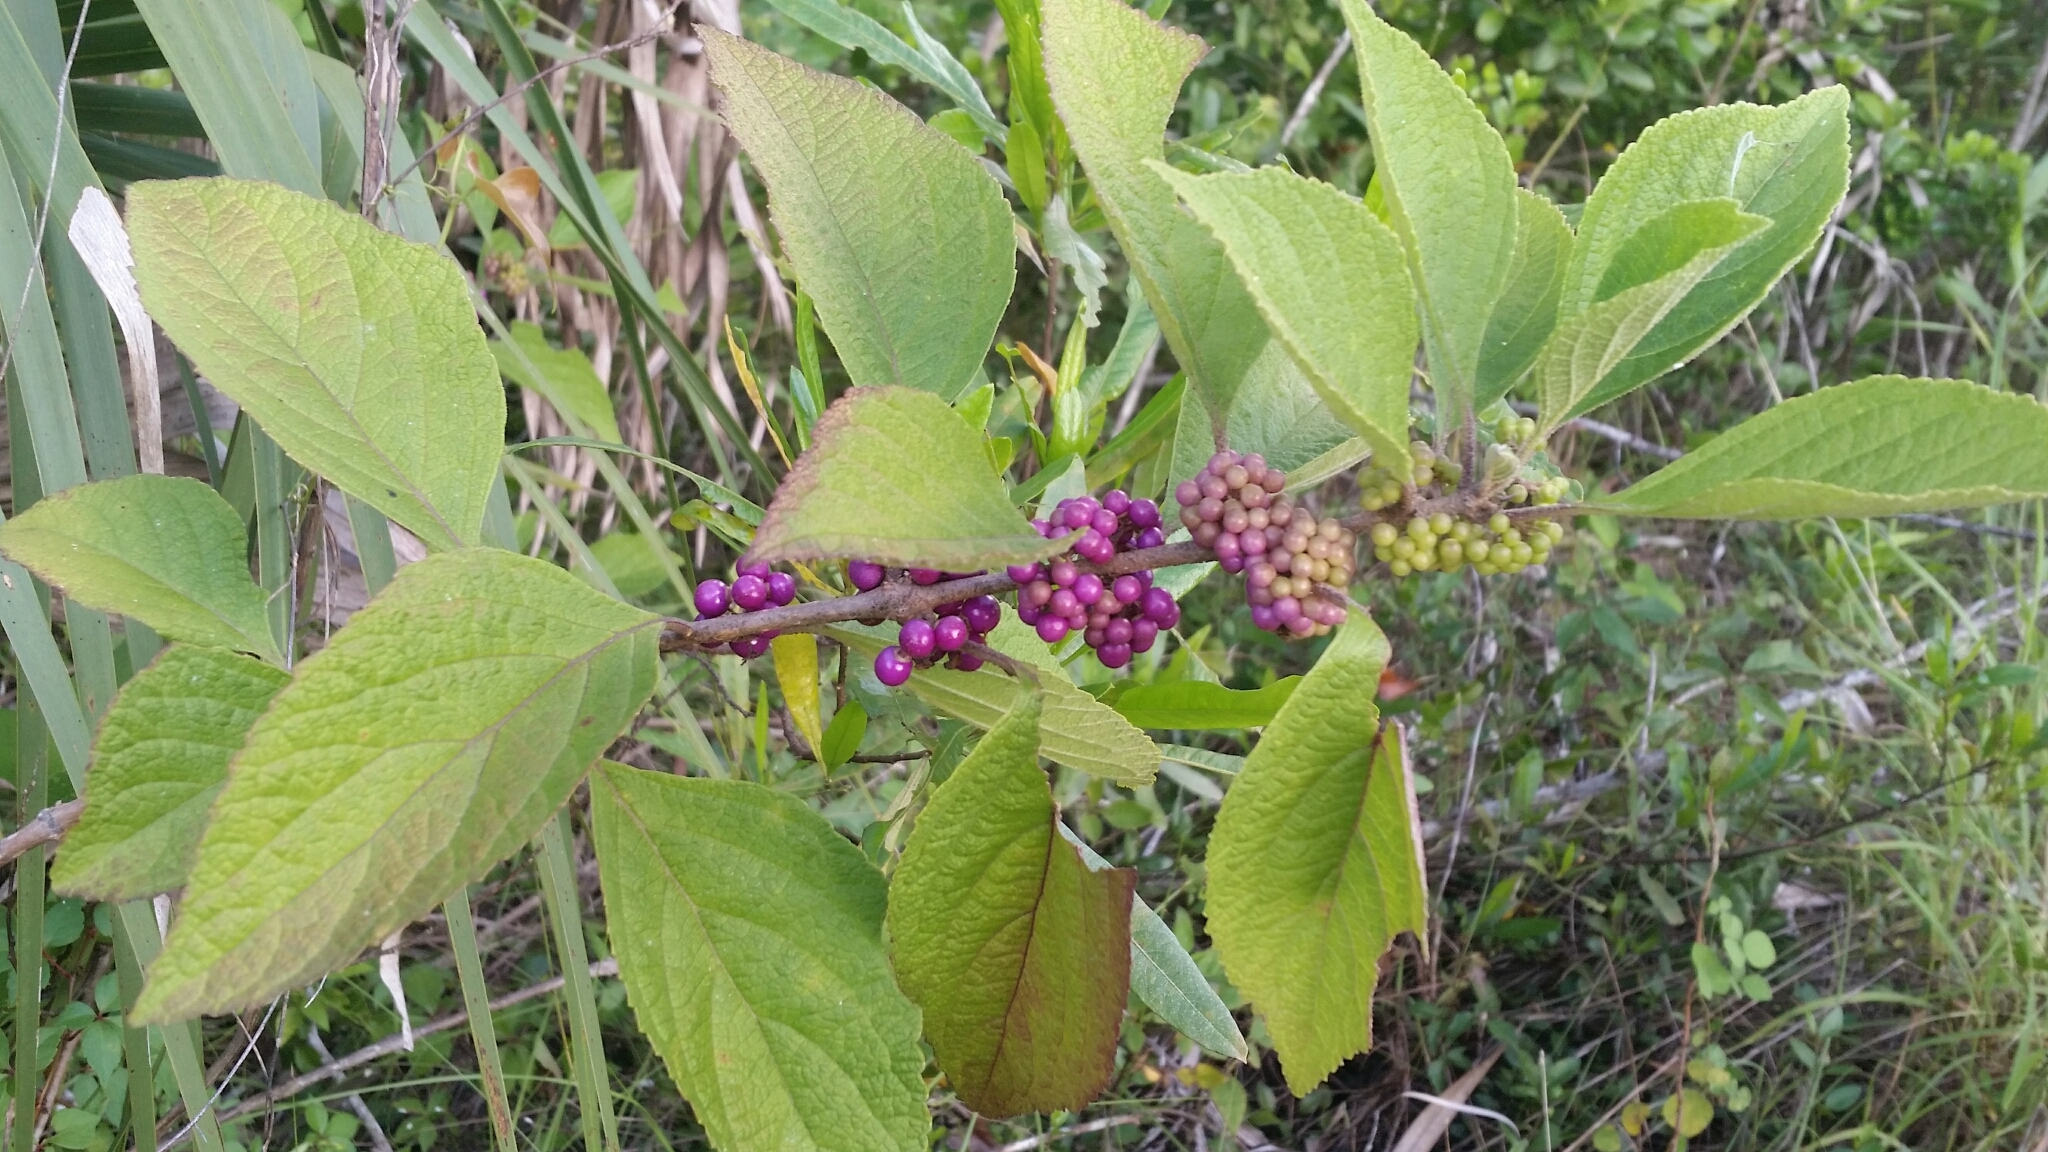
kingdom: Plantae
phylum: Tracheophyta
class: Magnoliopsida
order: Lamiales
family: Lamiaceae
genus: Callicarpa
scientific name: Callicarpa americana
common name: American beautyberry
